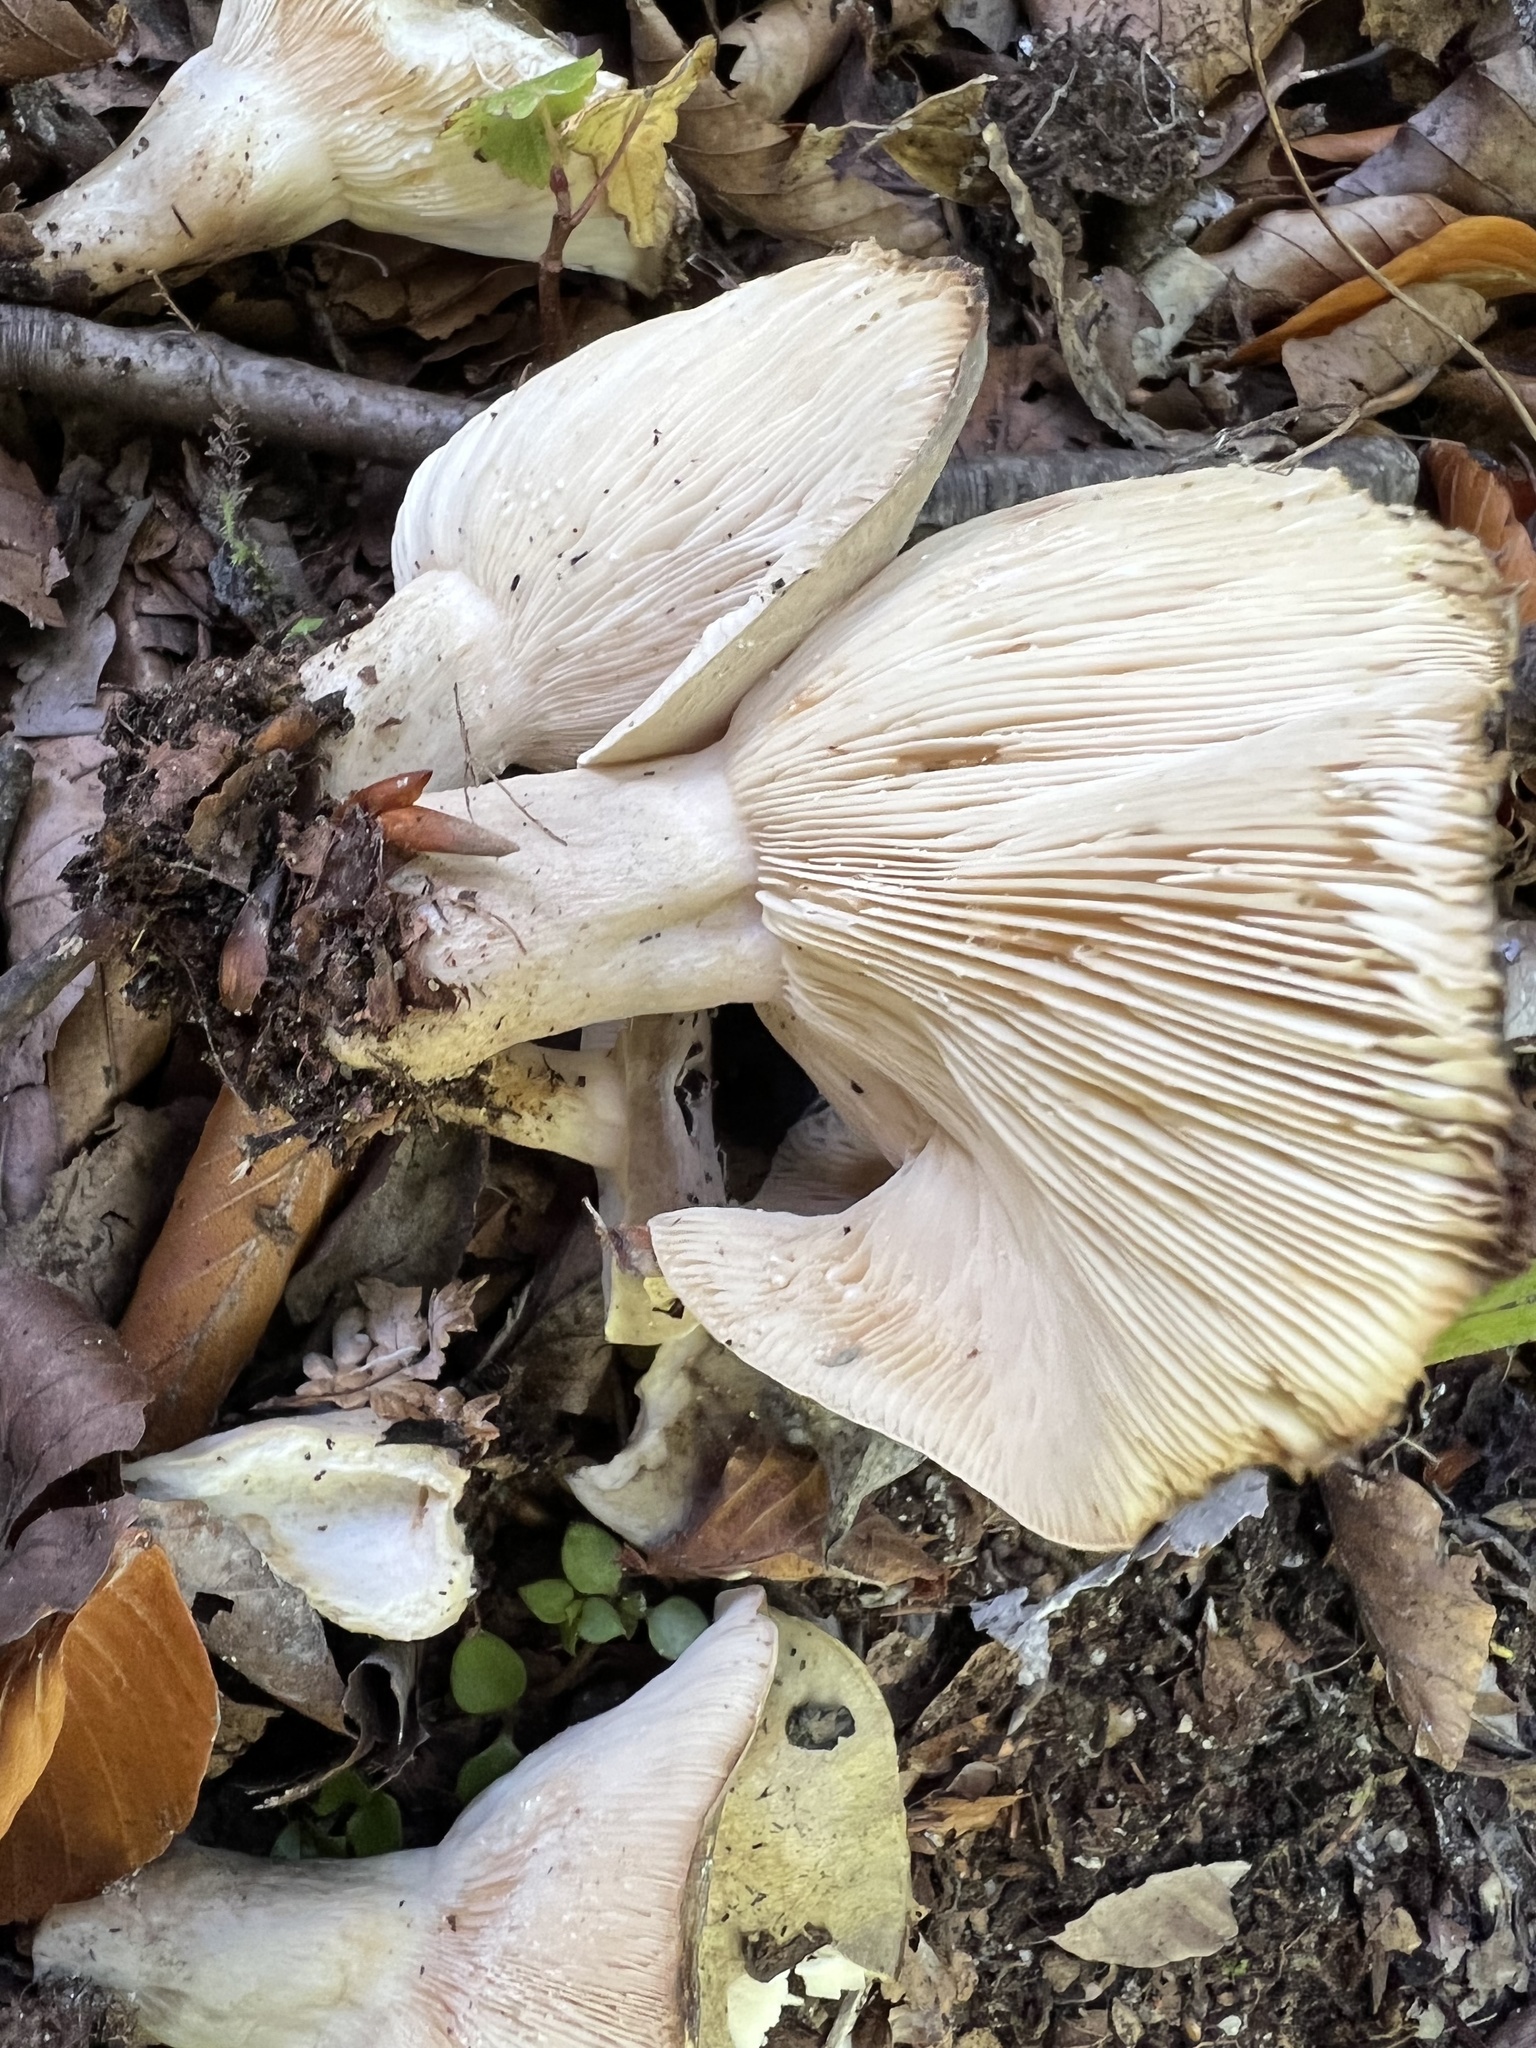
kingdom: Fungi
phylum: Basidiomycota
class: Agaricomycetes
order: Russulales
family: Russulaceae
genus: Lactarius
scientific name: Lactarius blennius
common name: Beech milkcap
